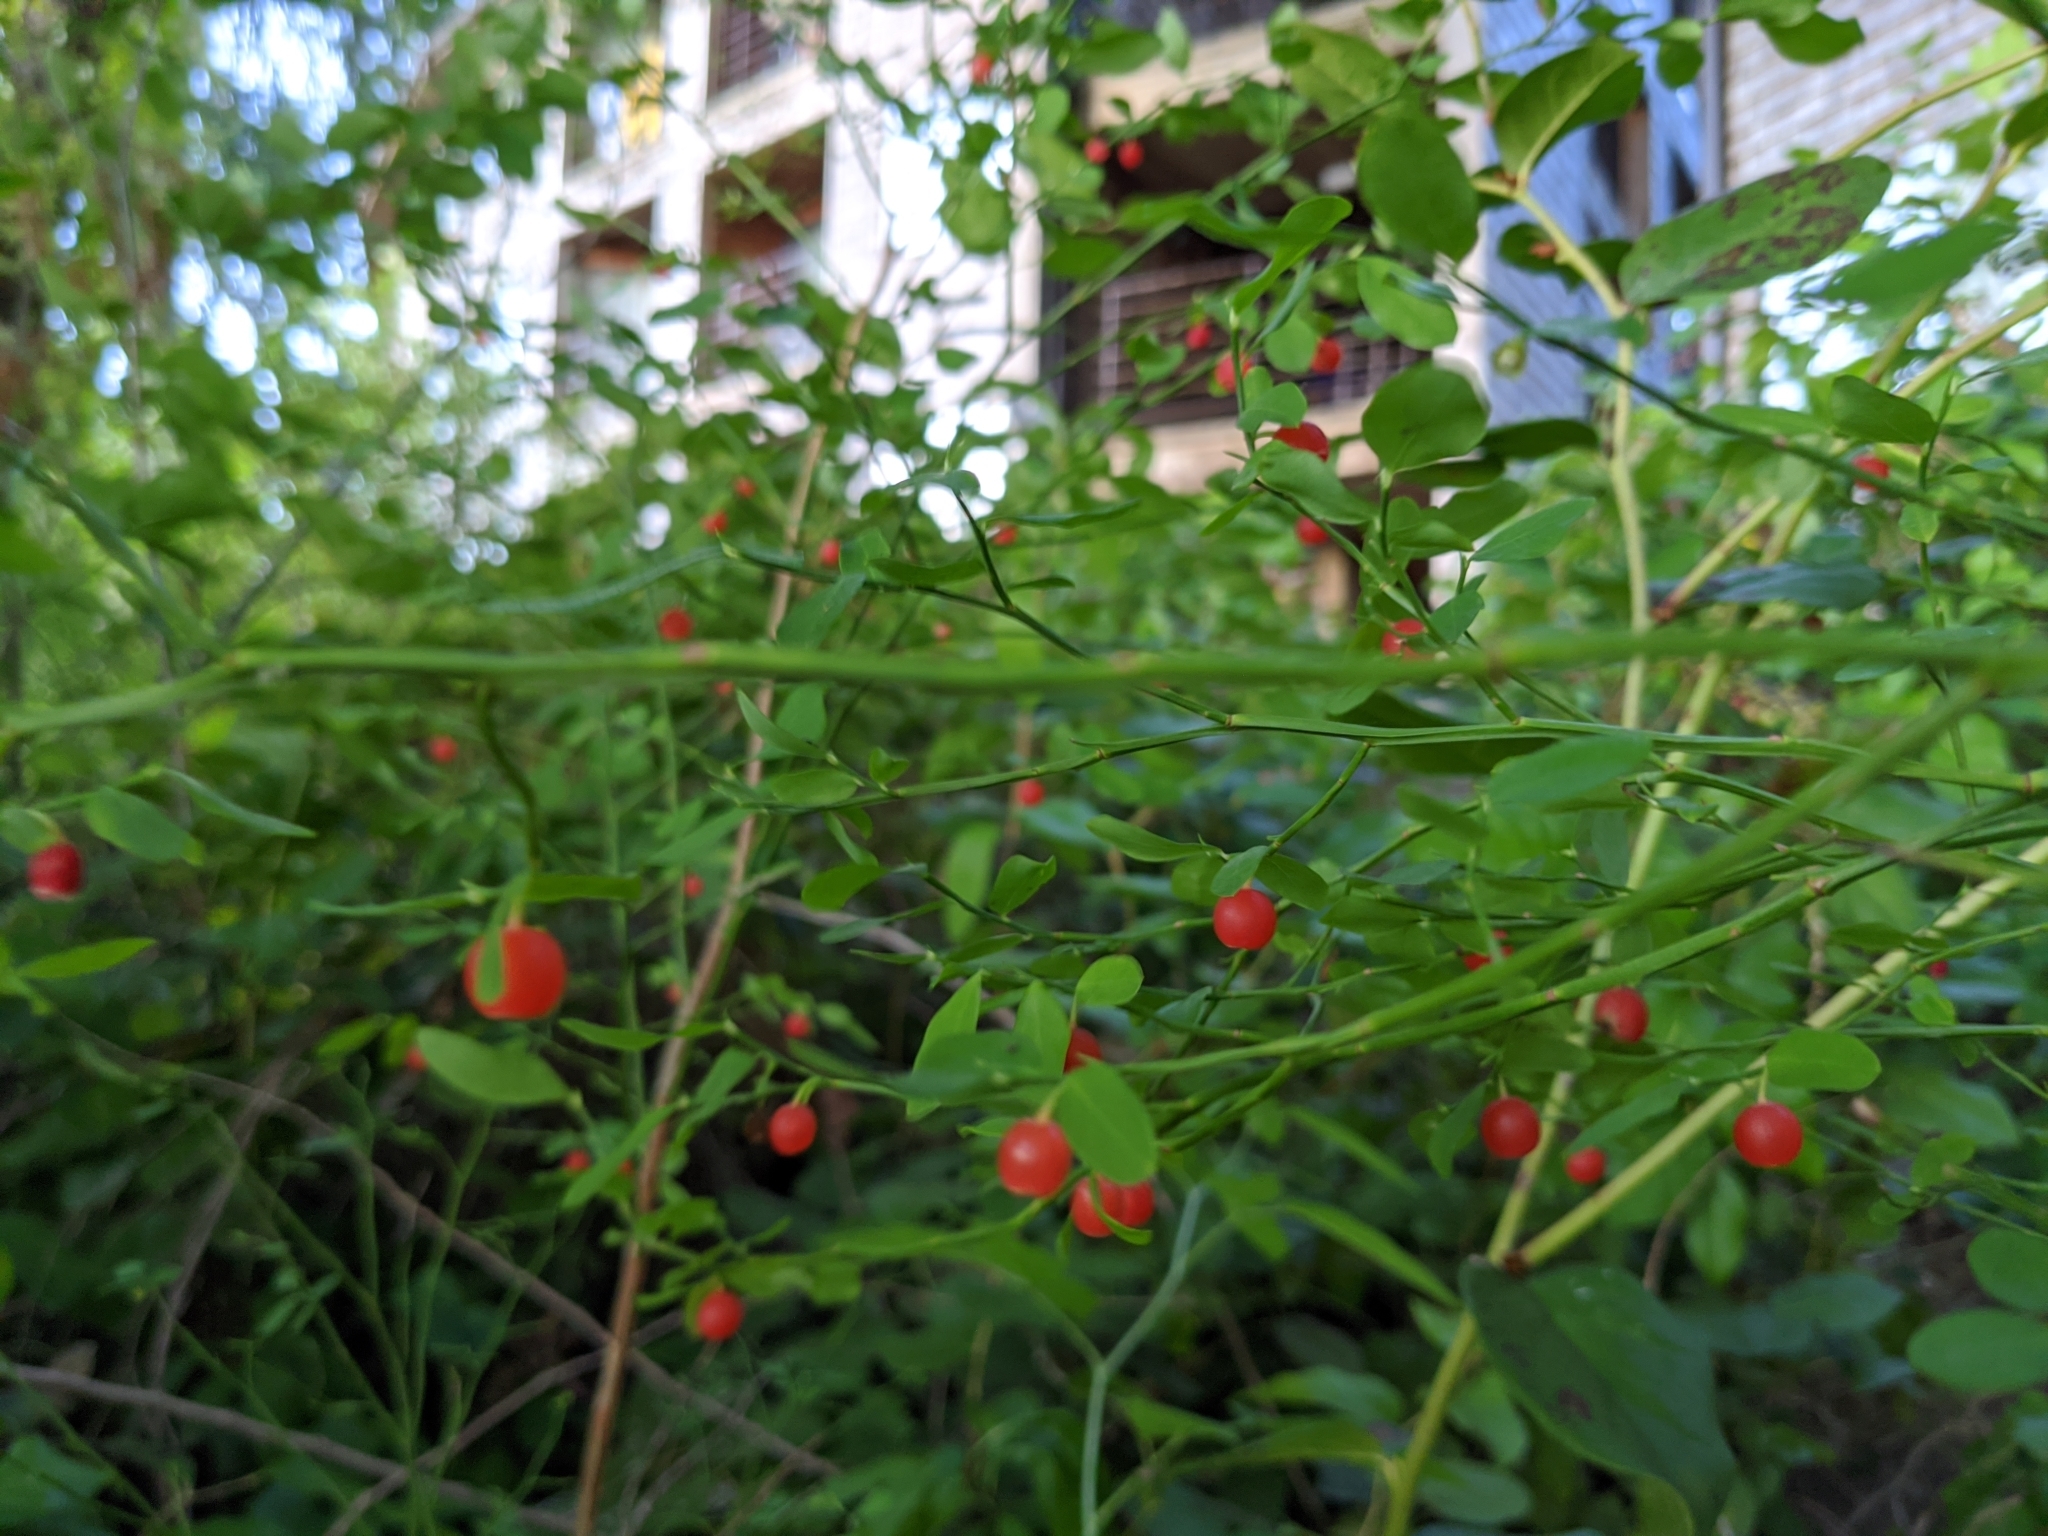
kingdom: Plantae
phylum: Tracheophyta
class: Magnoliopsida
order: Ericales
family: Ericaceae
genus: Vaccinium
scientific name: Vaccinium parvifolium
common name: Red-huckleberry
